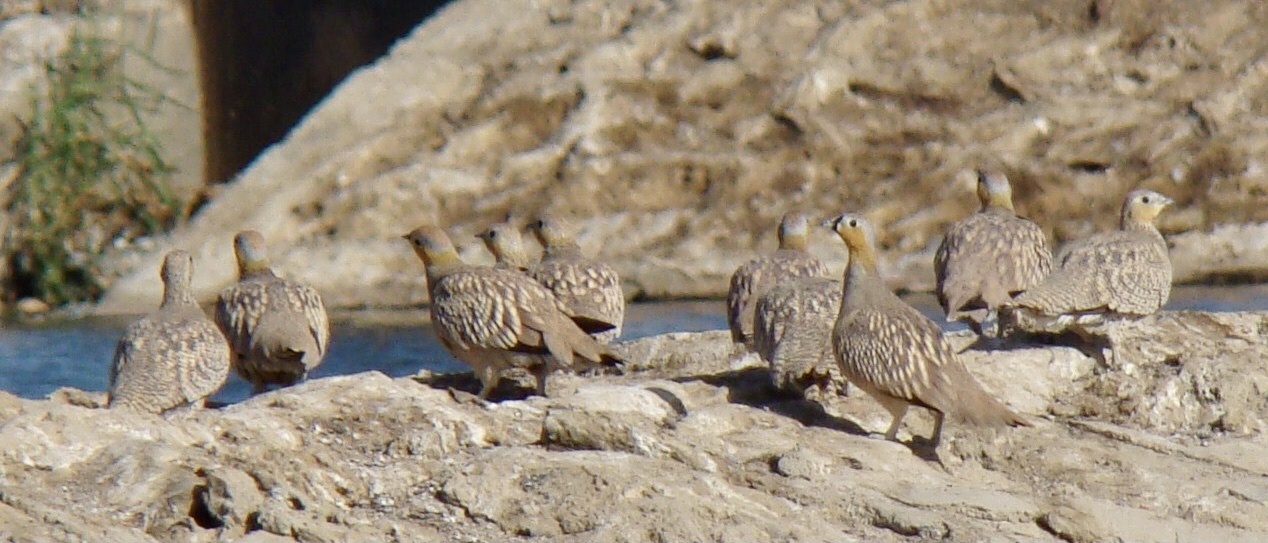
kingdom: Animalia
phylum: Chordata
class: Aves
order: Pteroclidiformes
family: Pteroclididae
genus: Pterocles
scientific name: Pterocles coronatus
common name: Crowned sandgrouse
